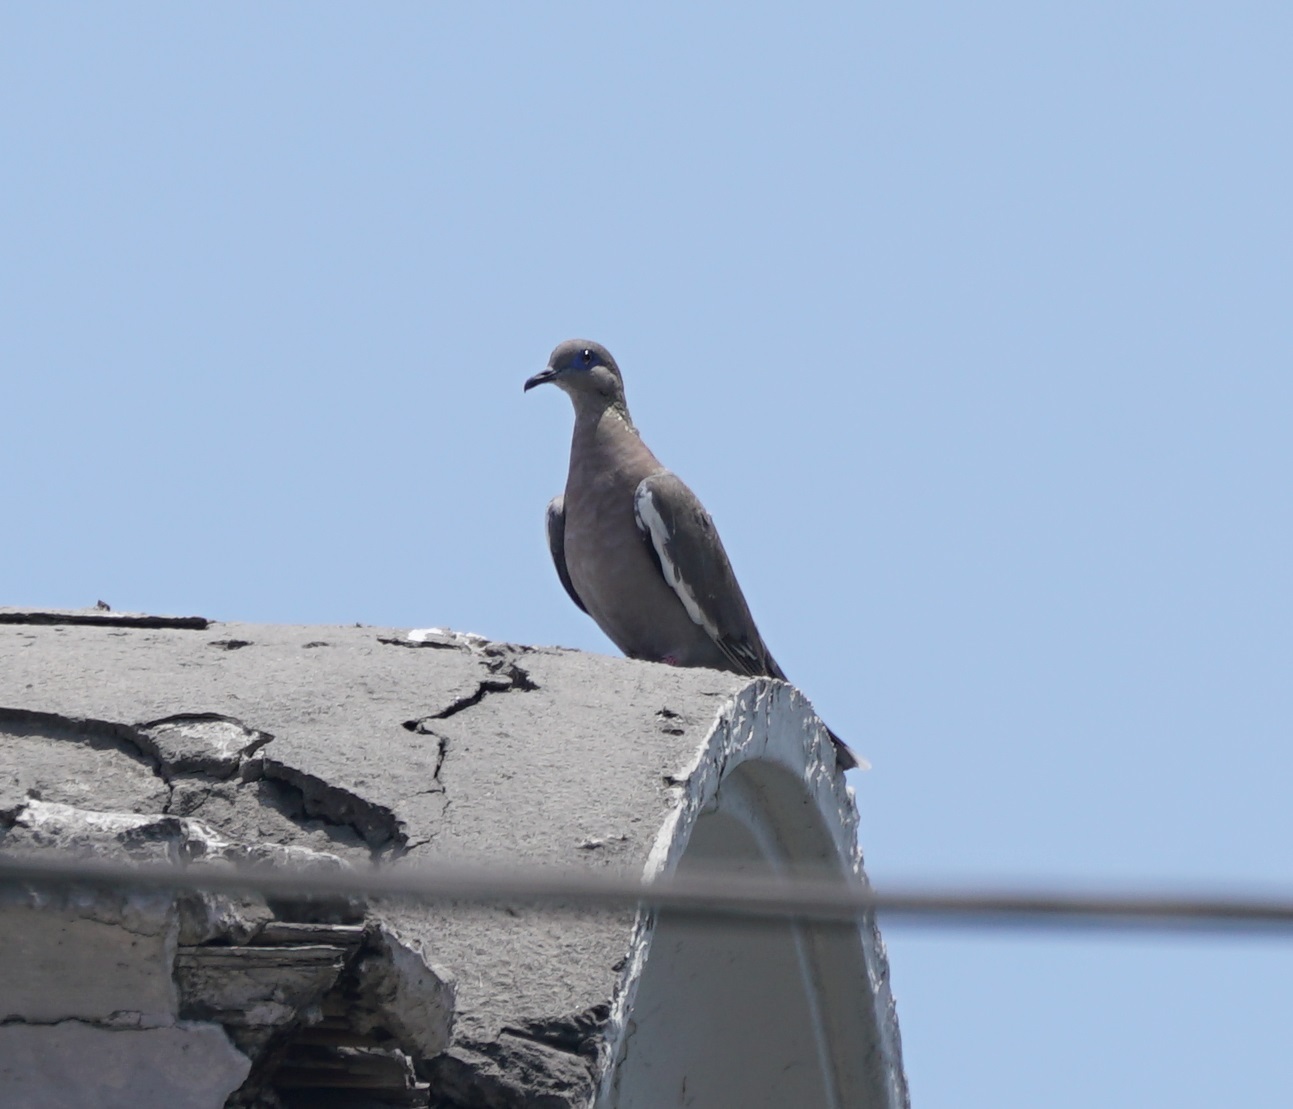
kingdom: Animalia
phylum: Chordata
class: Aves
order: Columbiformes
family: Columbidae
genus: Zenaida
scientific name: Zenaida meloda
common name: West peruvian dove
